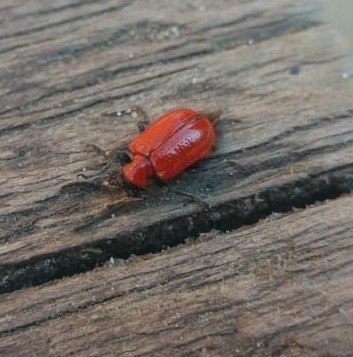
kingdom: Animalia
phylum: Arthropoda
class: Insecta
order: Coleoptera
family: Chrysomelidae
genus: Lilioceris
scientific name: Lilioceris lilii
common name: Lily beetle
